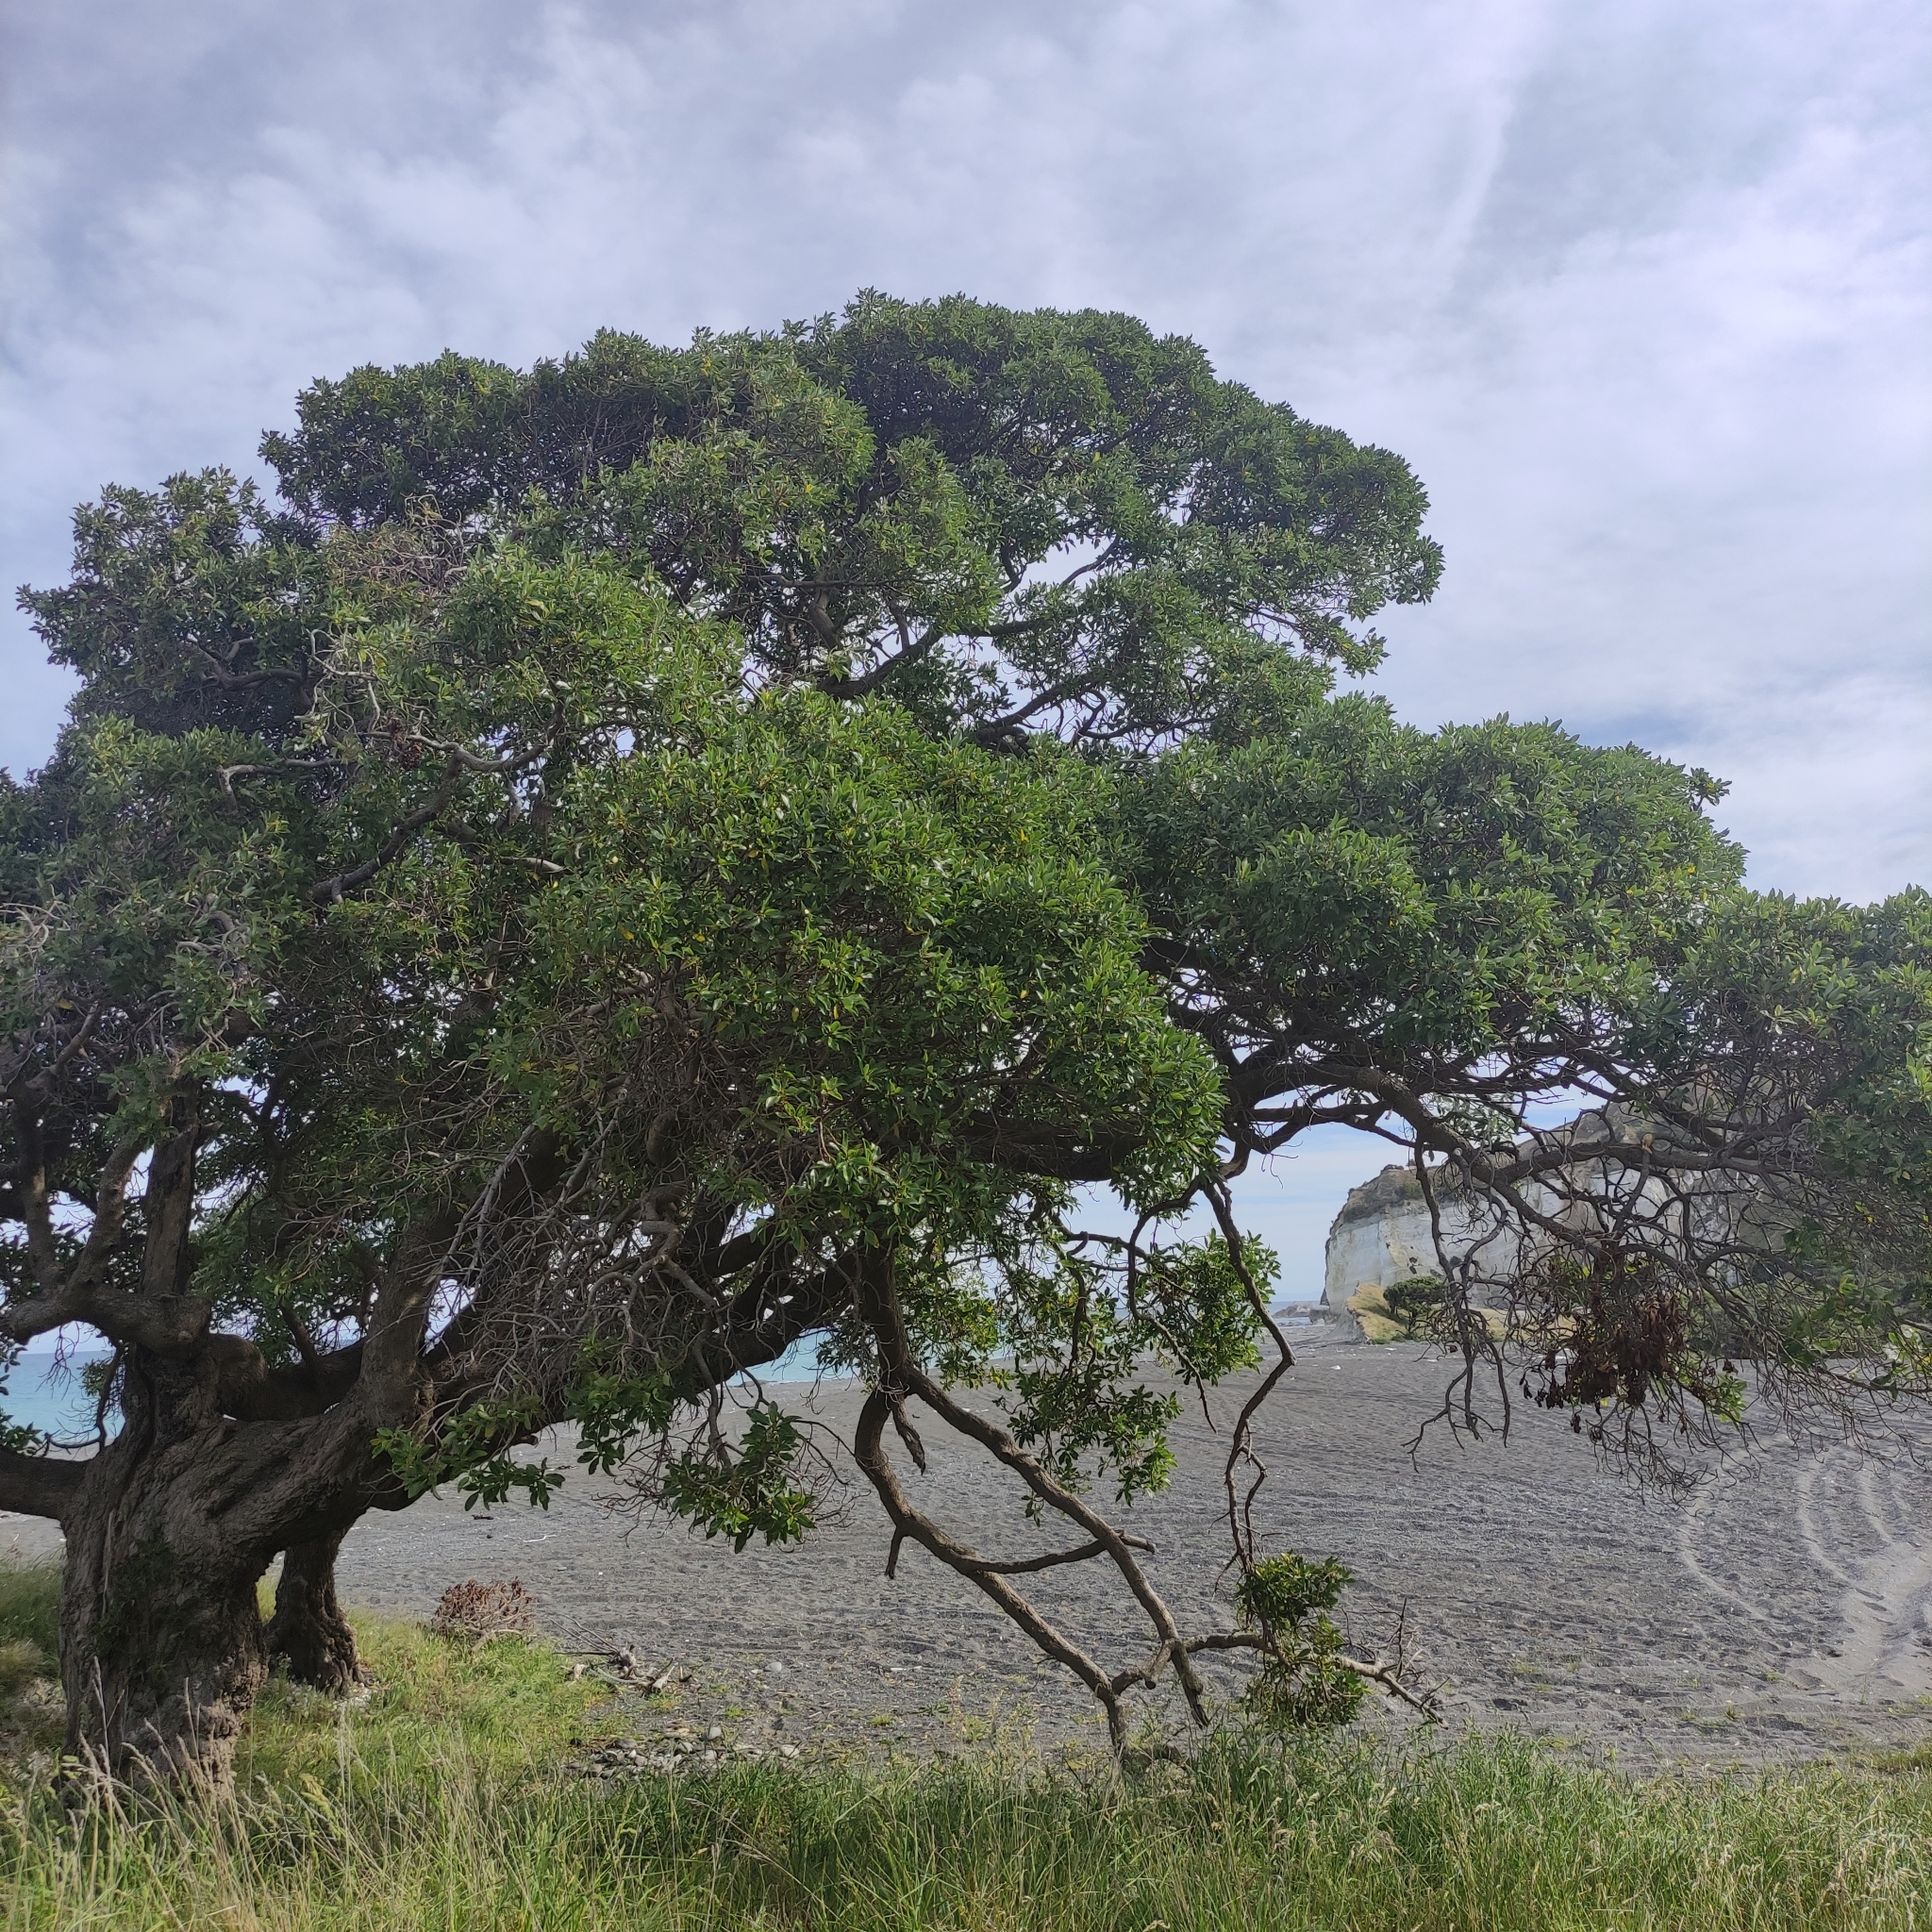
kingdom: Plantae
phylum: Tracheophyta
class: Magnoliopsida
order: Lamiales
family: Scrophulariaceae
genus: Myoporum
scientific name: Myoporum laetum
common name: Ngaio tree
